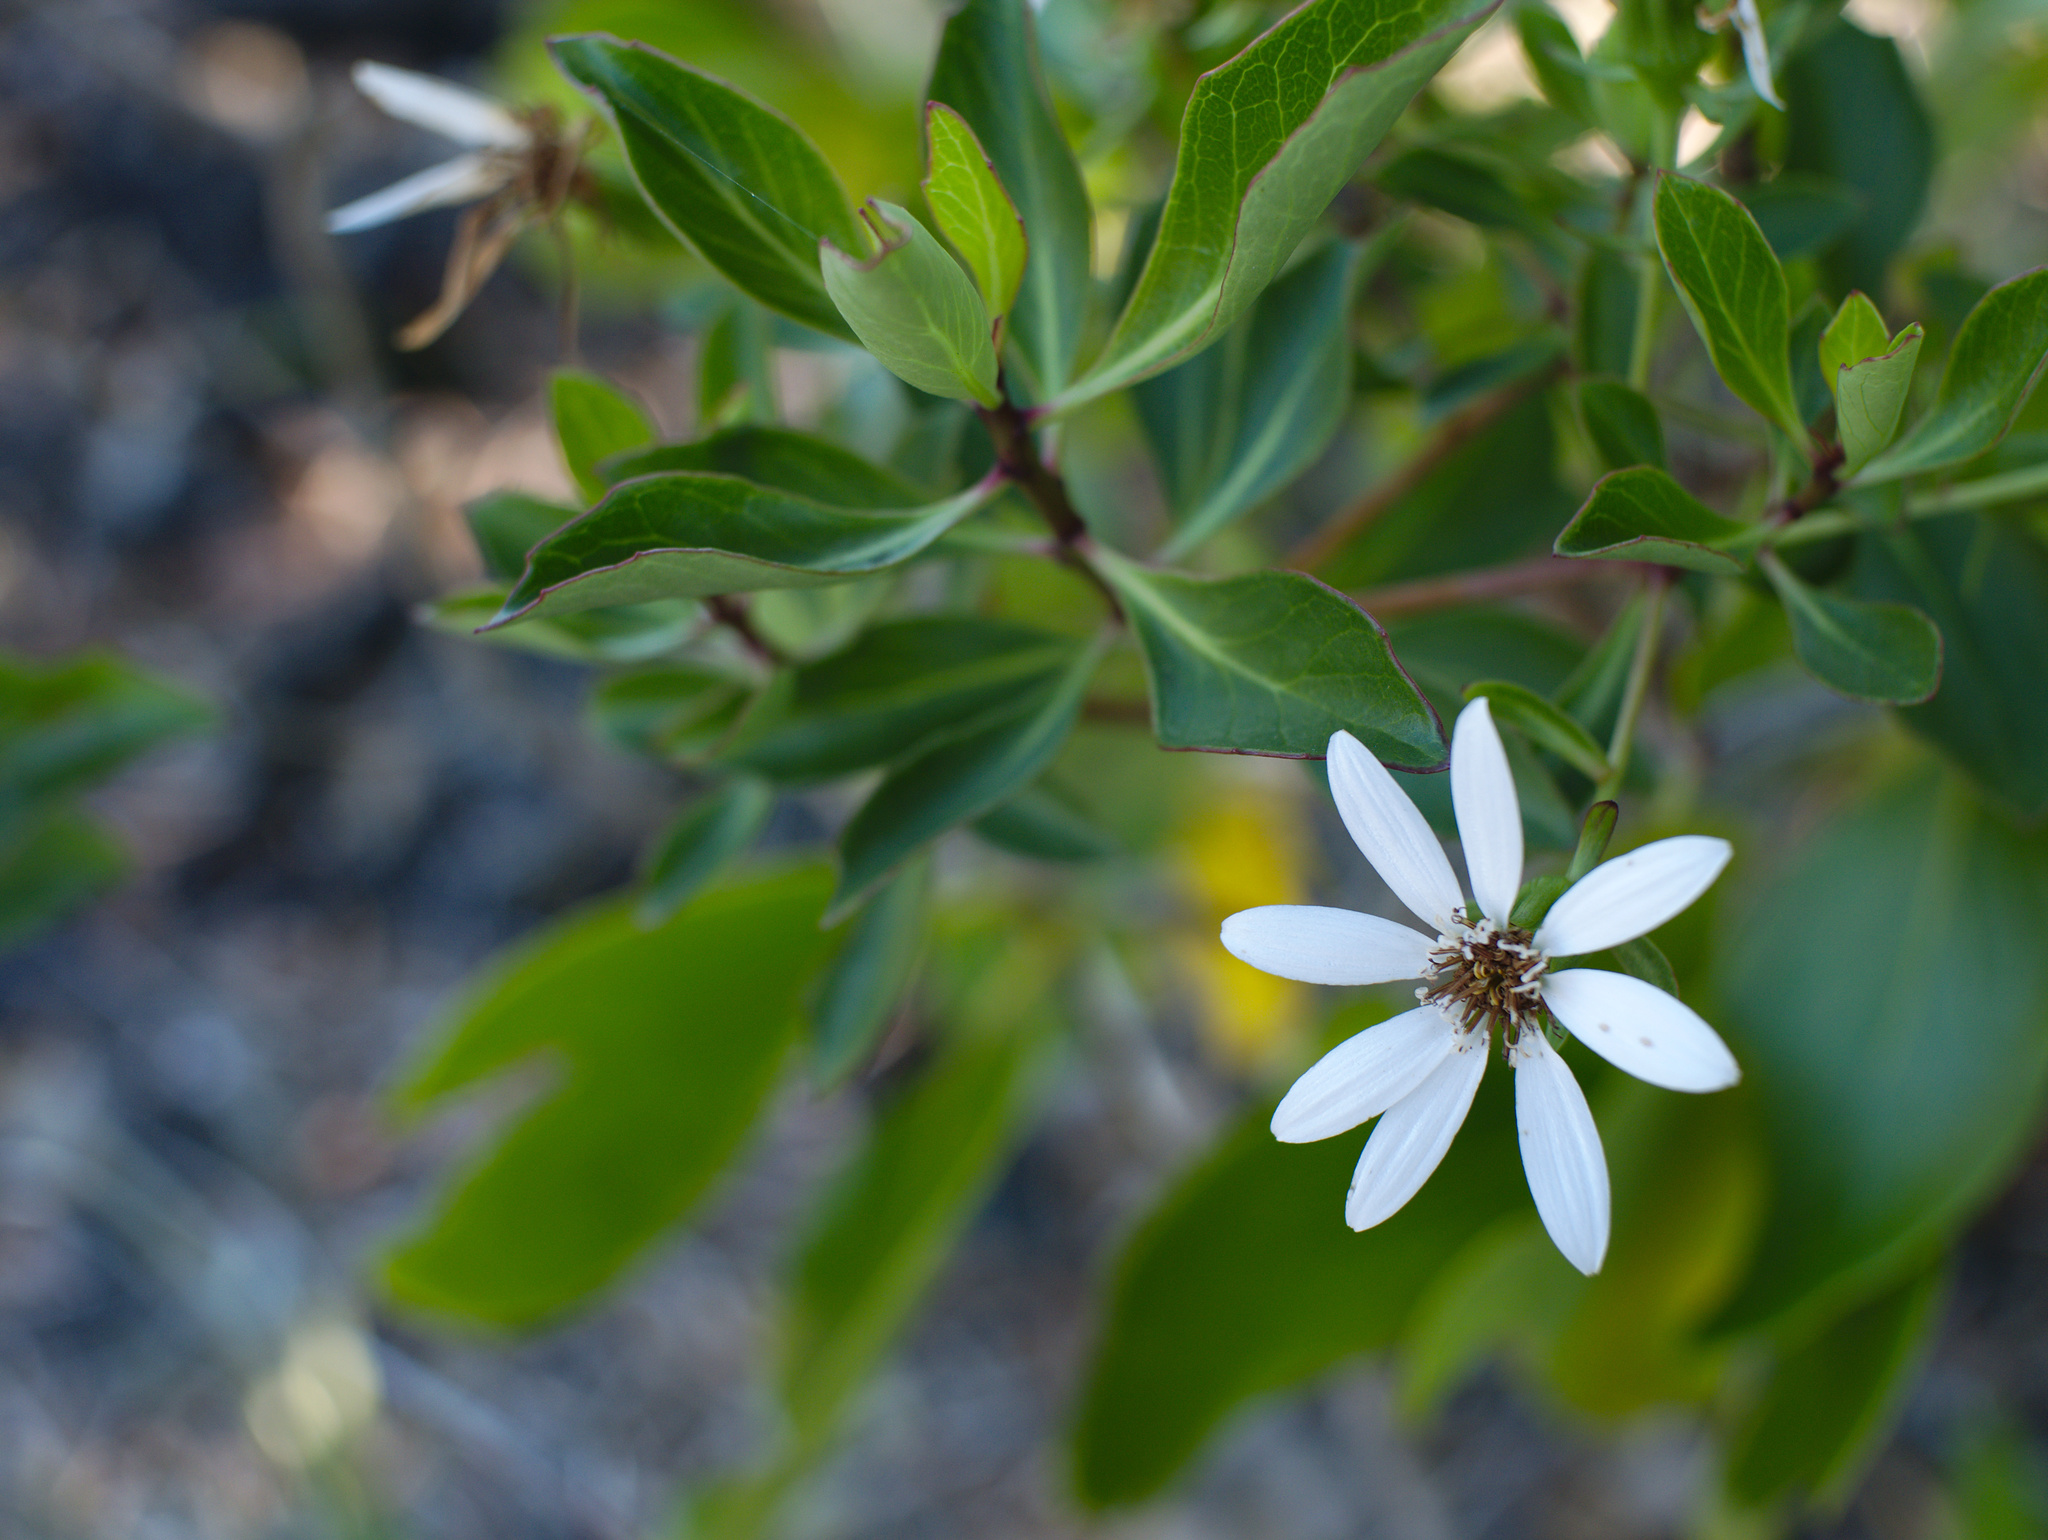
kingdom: Plantae
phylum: Tracheophyta
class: Magnoliopsida
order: Asterales
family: Asteraceae
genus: Brachyglottis
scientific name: Brachyglottis kirkii
